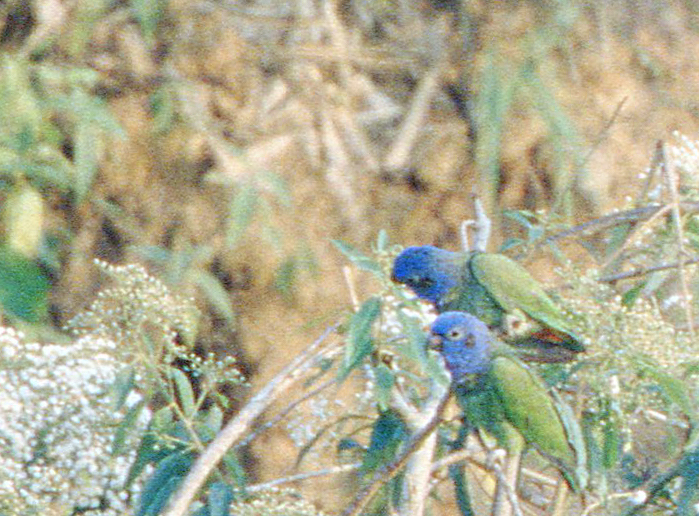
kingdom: Animalia
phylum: Chordata
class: Aves
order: Psittaciformes
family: Psittacidae
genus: Pionus
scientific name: Pionus menstruus
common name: Blue-headed parrot
